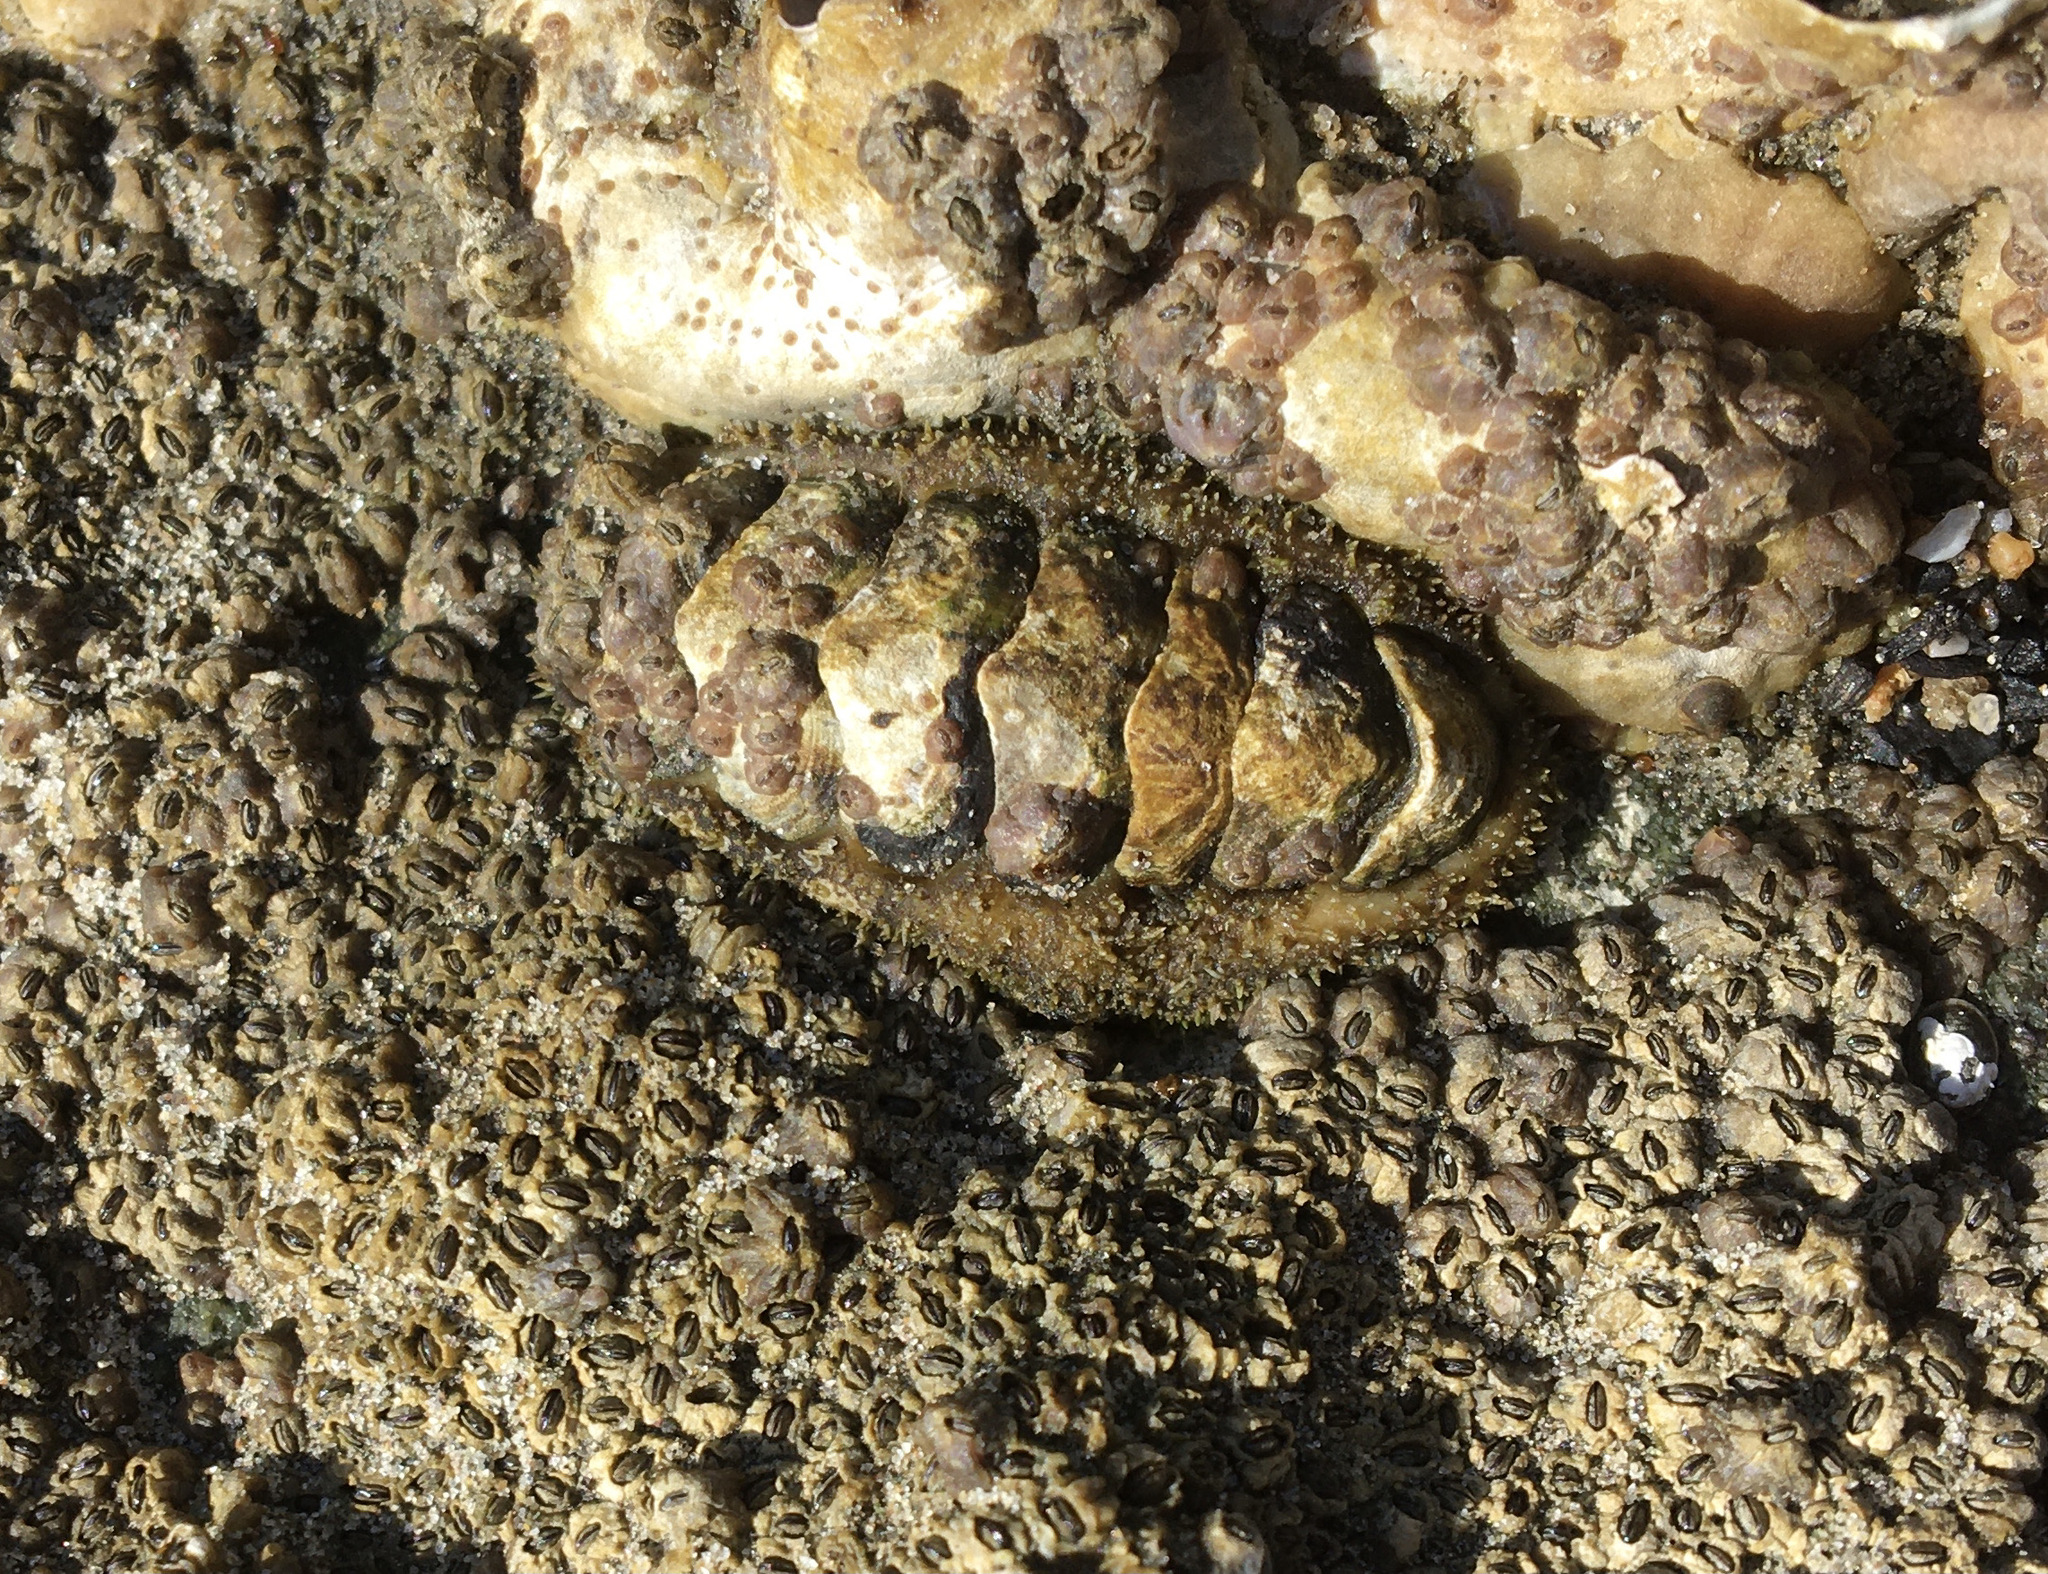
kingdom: Animalia
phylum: Mollusca
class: Polyplacophora
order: Chitonida
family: Tonicellidae
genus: Nuttallina
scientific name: Nuttallina californica
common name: California nuttall chiton
